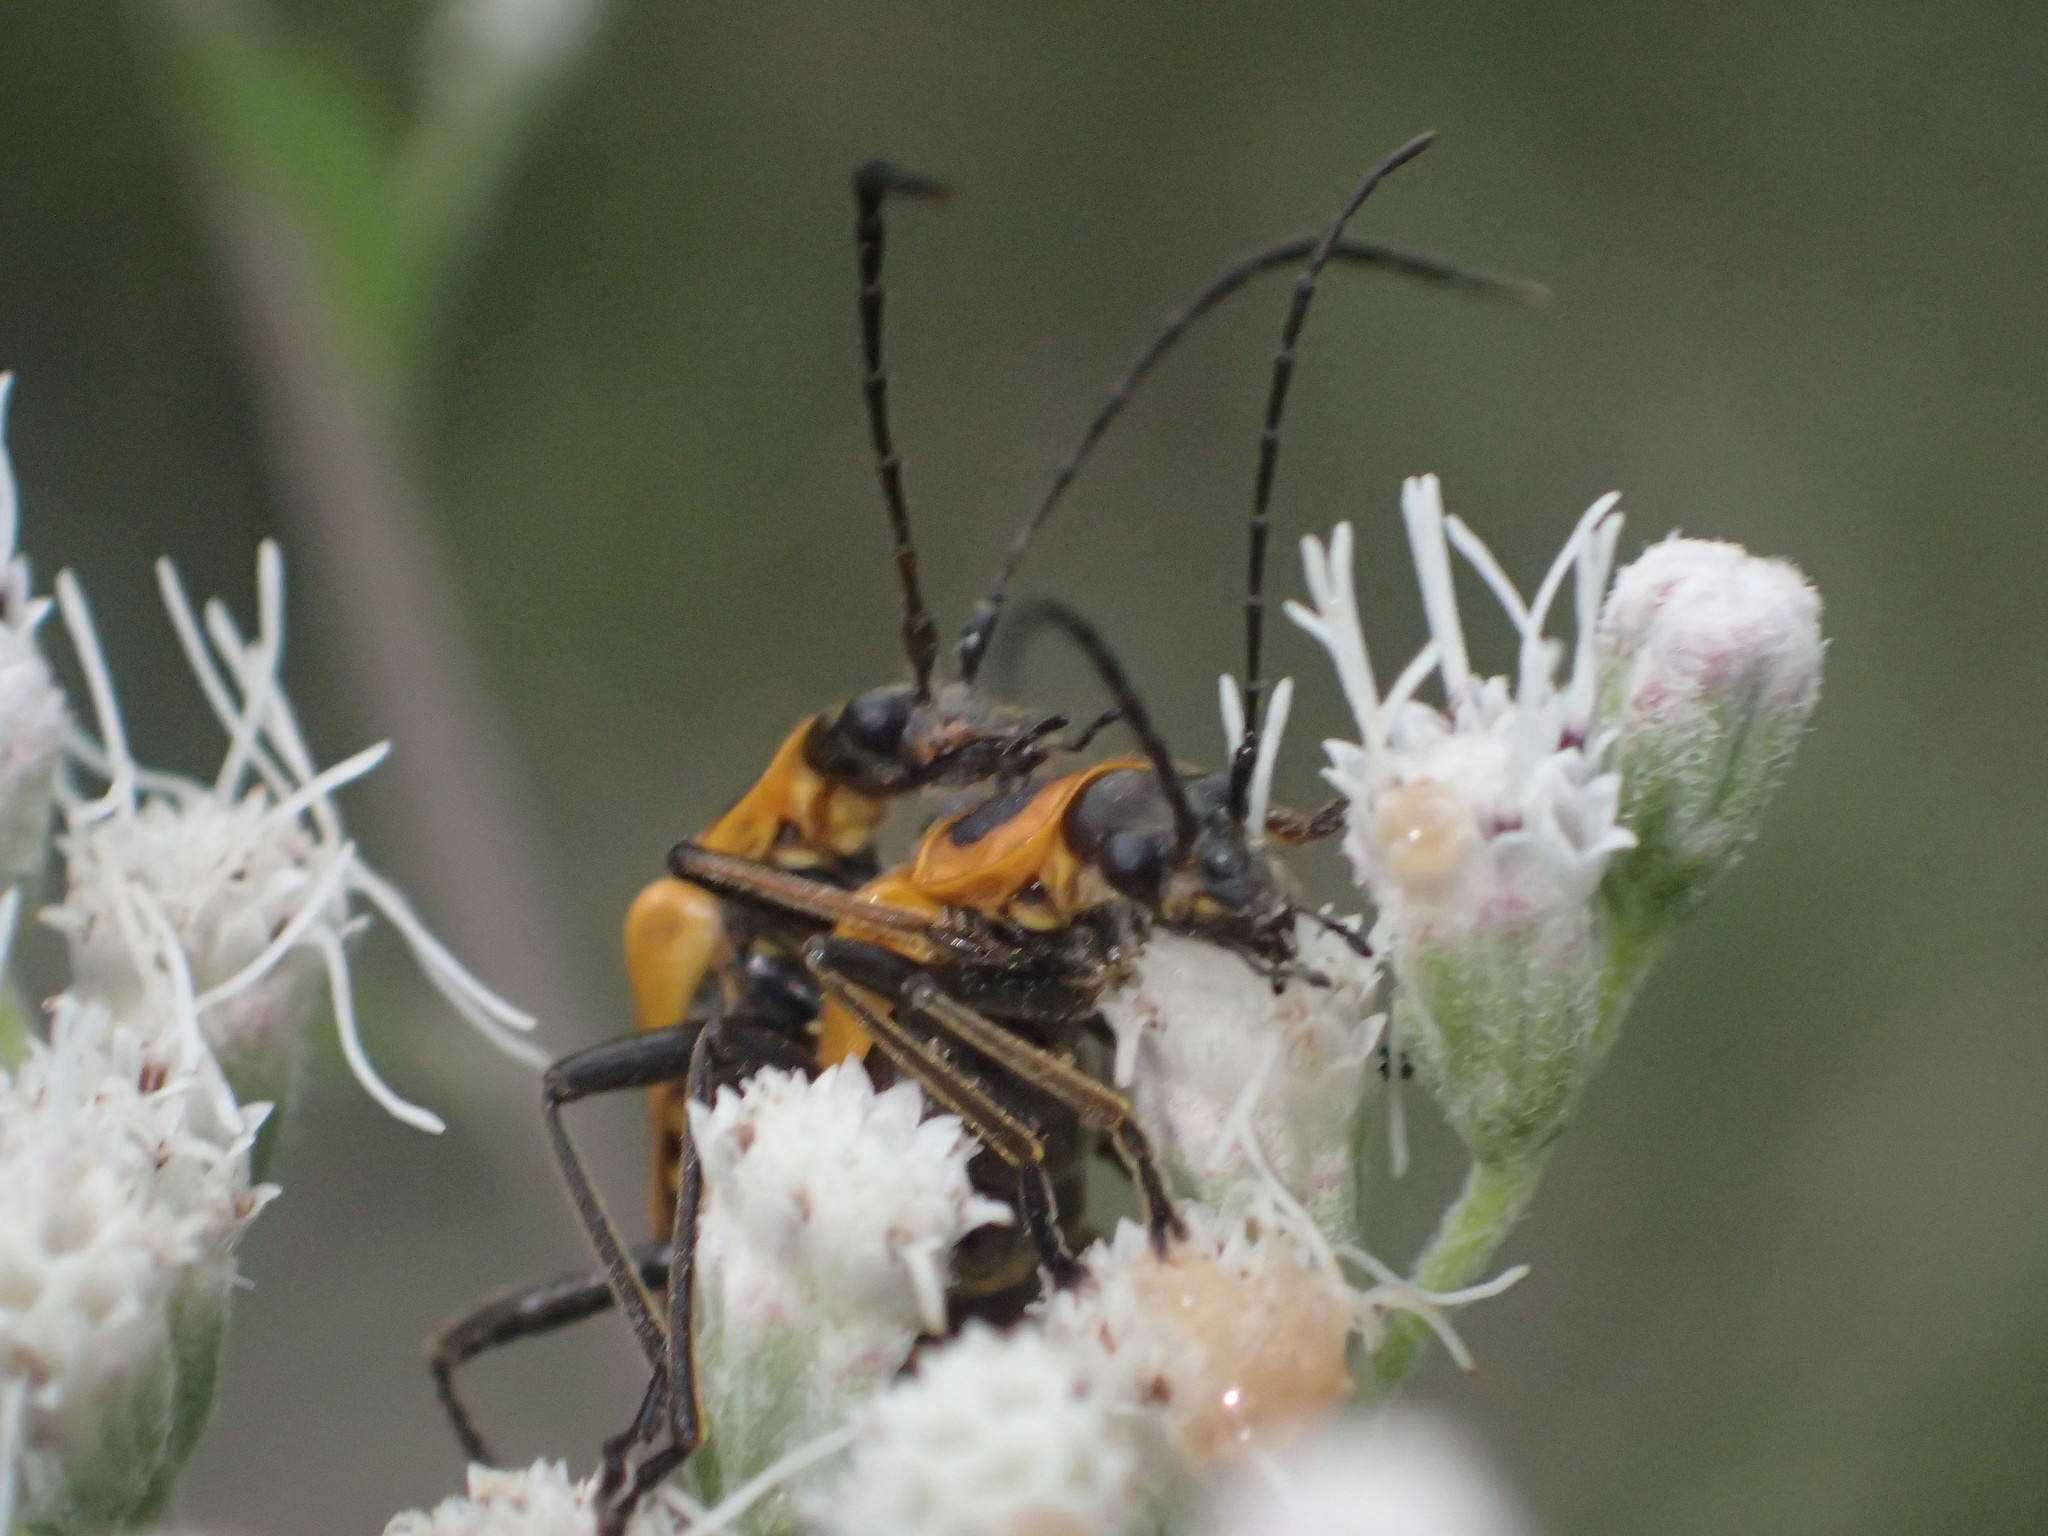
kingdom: Animalia
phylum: Arthropoda
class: Insecta
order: Coleoptera
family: Cantharidae
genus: Chauliognathus
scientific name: Chauliognathus pensylvanicus
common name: Goldenrod soldier beetle
